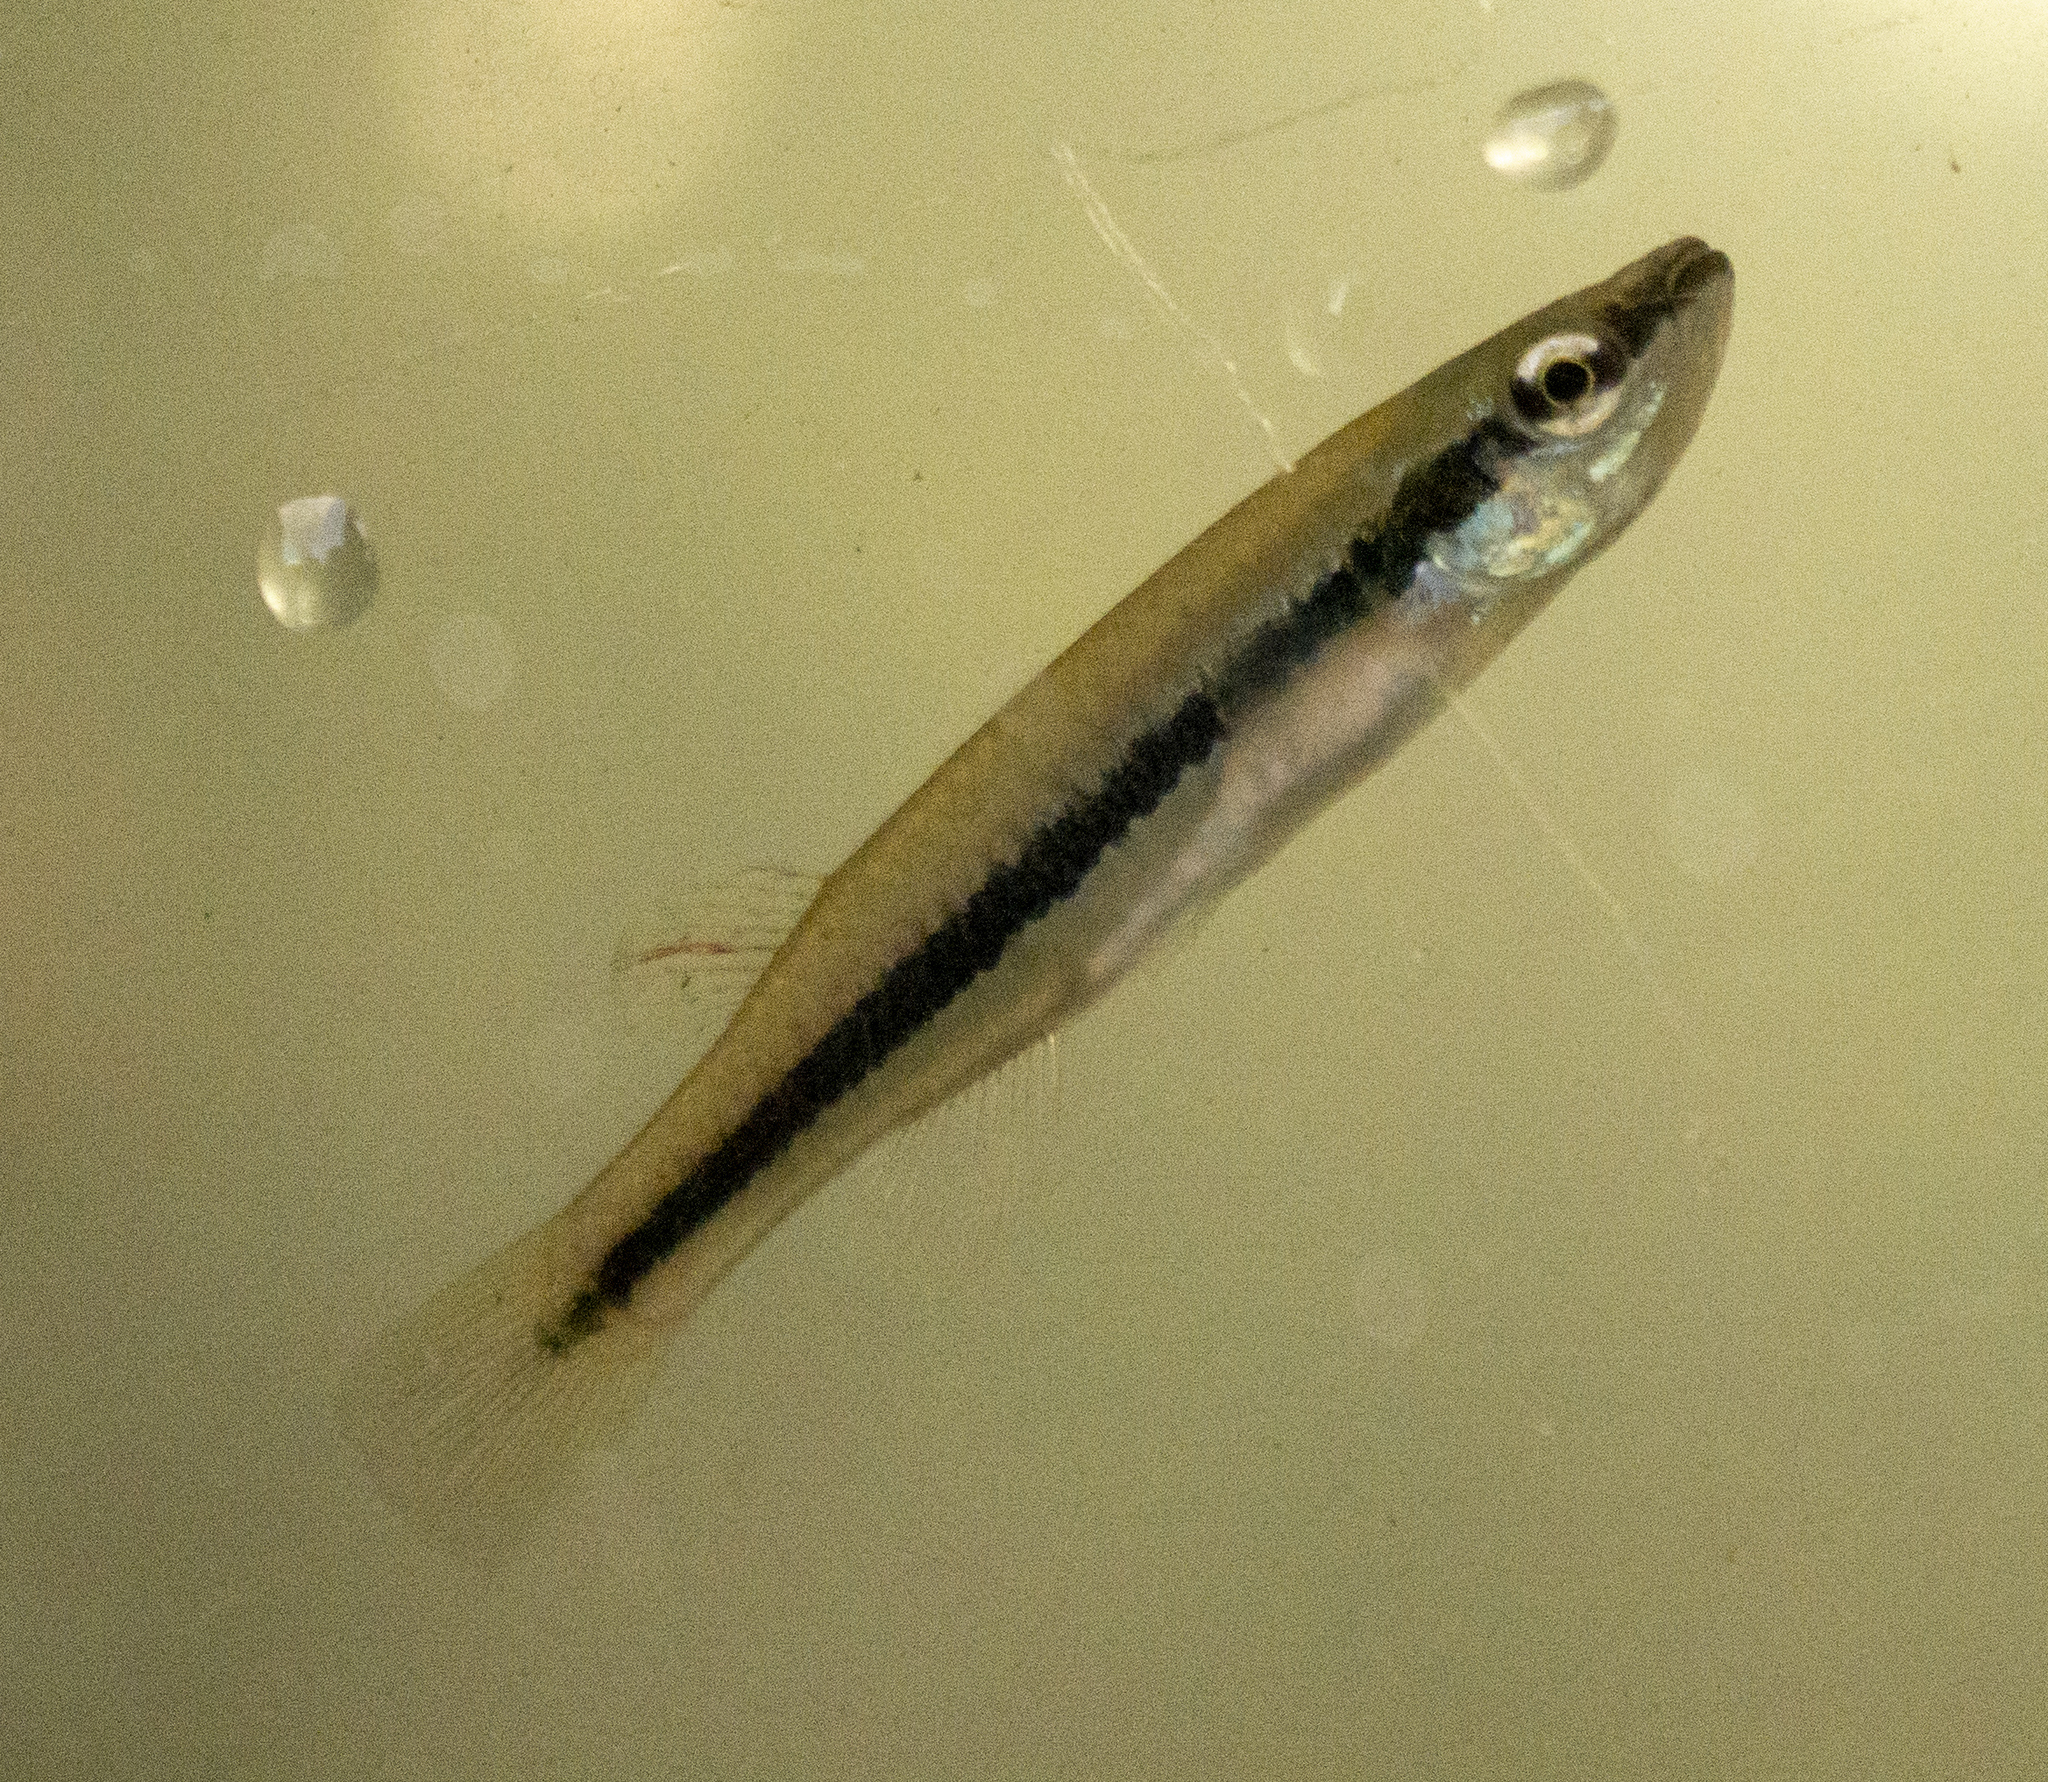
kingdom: Animalia
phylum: Chordata
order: Cyprinodontiformes
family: Fundulidae
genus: Fundulus
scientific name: Fundulus notatus
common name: Blackstripe topminnow
